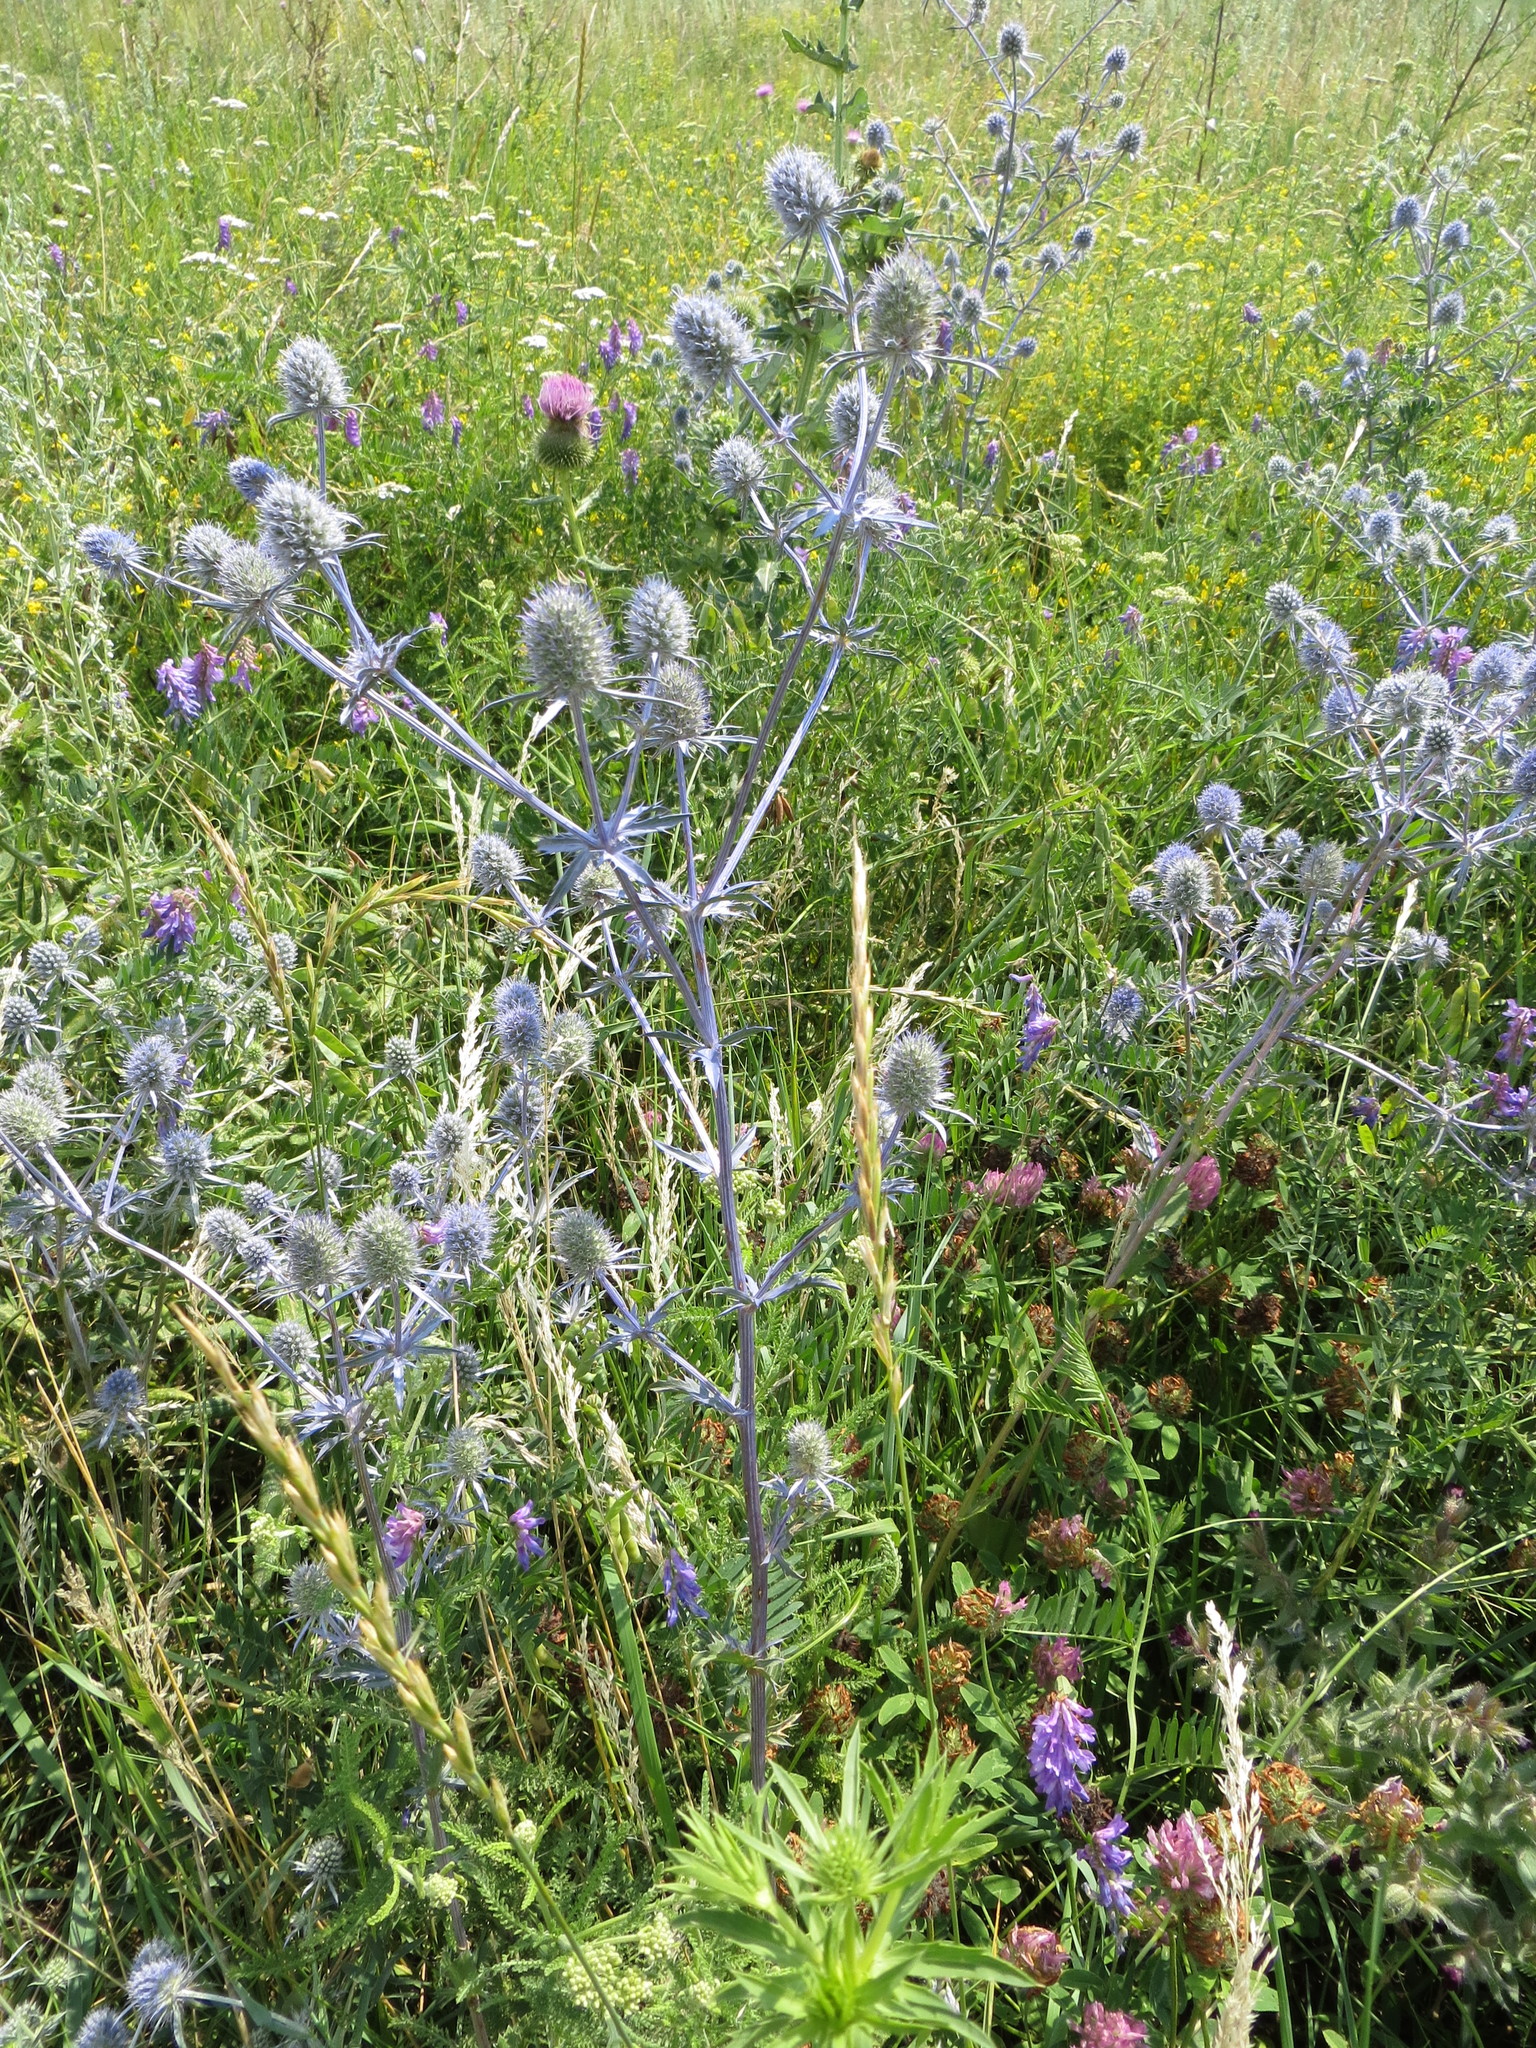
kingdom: Plantae
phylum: Tracheophyta
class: Magnoliopsida
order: Apiales
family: Apiaceae
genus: Eryngium
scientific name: Eryngium planum
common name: Blue eryngo
